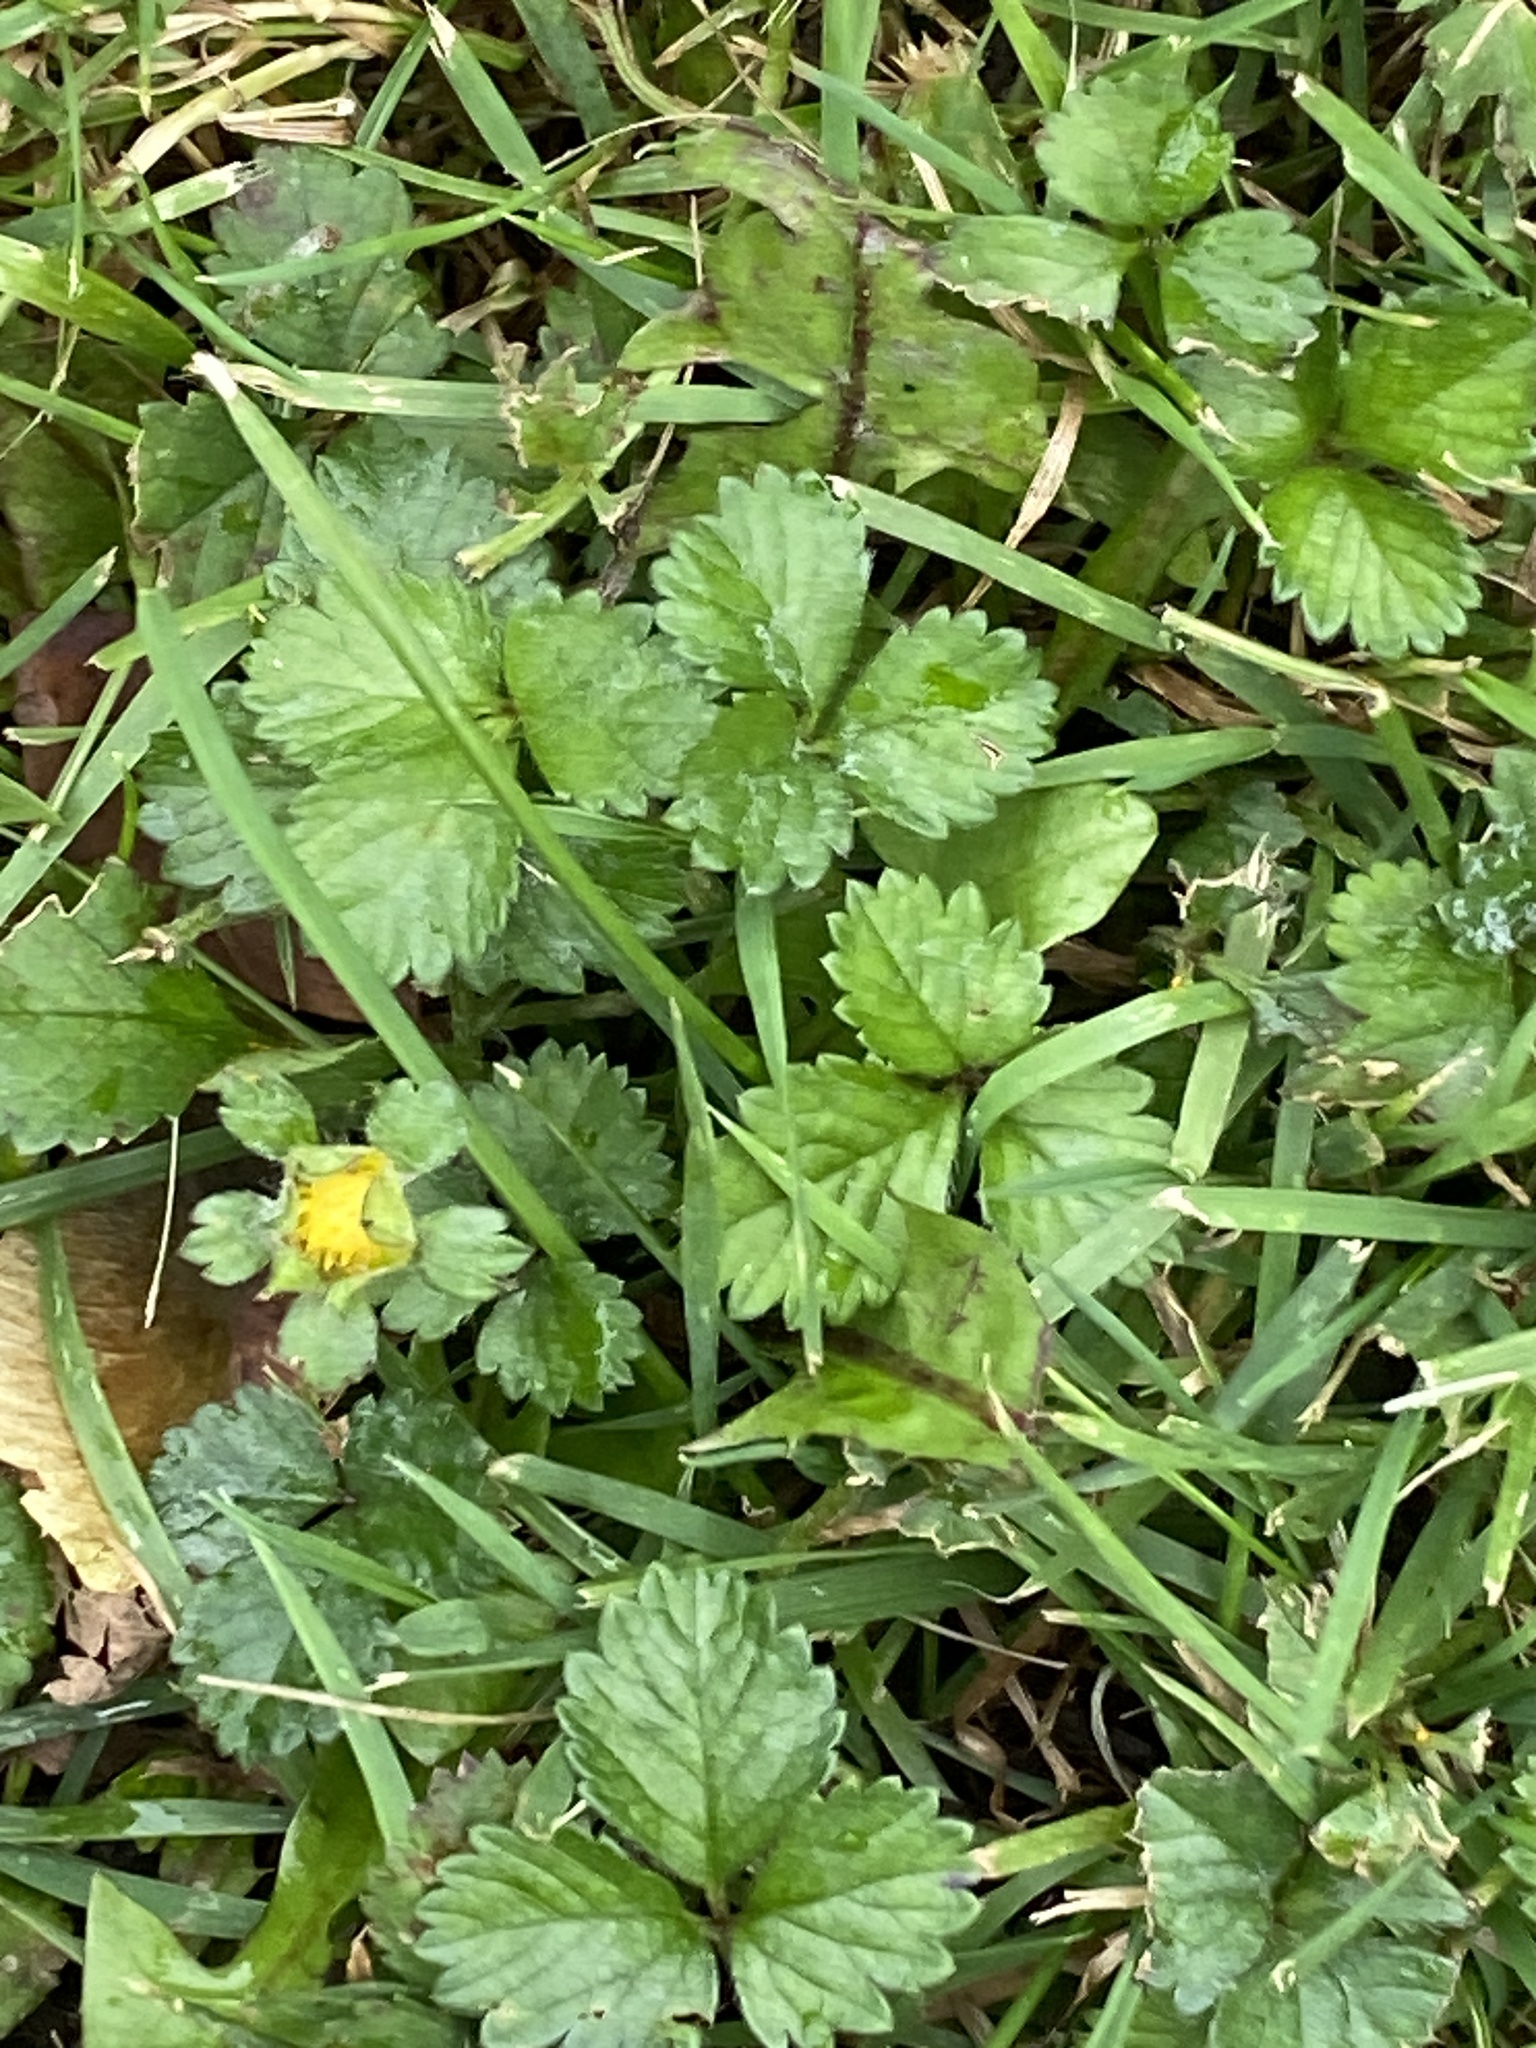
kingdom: Plantae
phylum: Tracheophyta
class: Magnoliopsida
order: Rosales
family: Rosaceae
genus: Potentilla
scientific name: Potentilla indica
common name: Yellow-flowered strawberry
